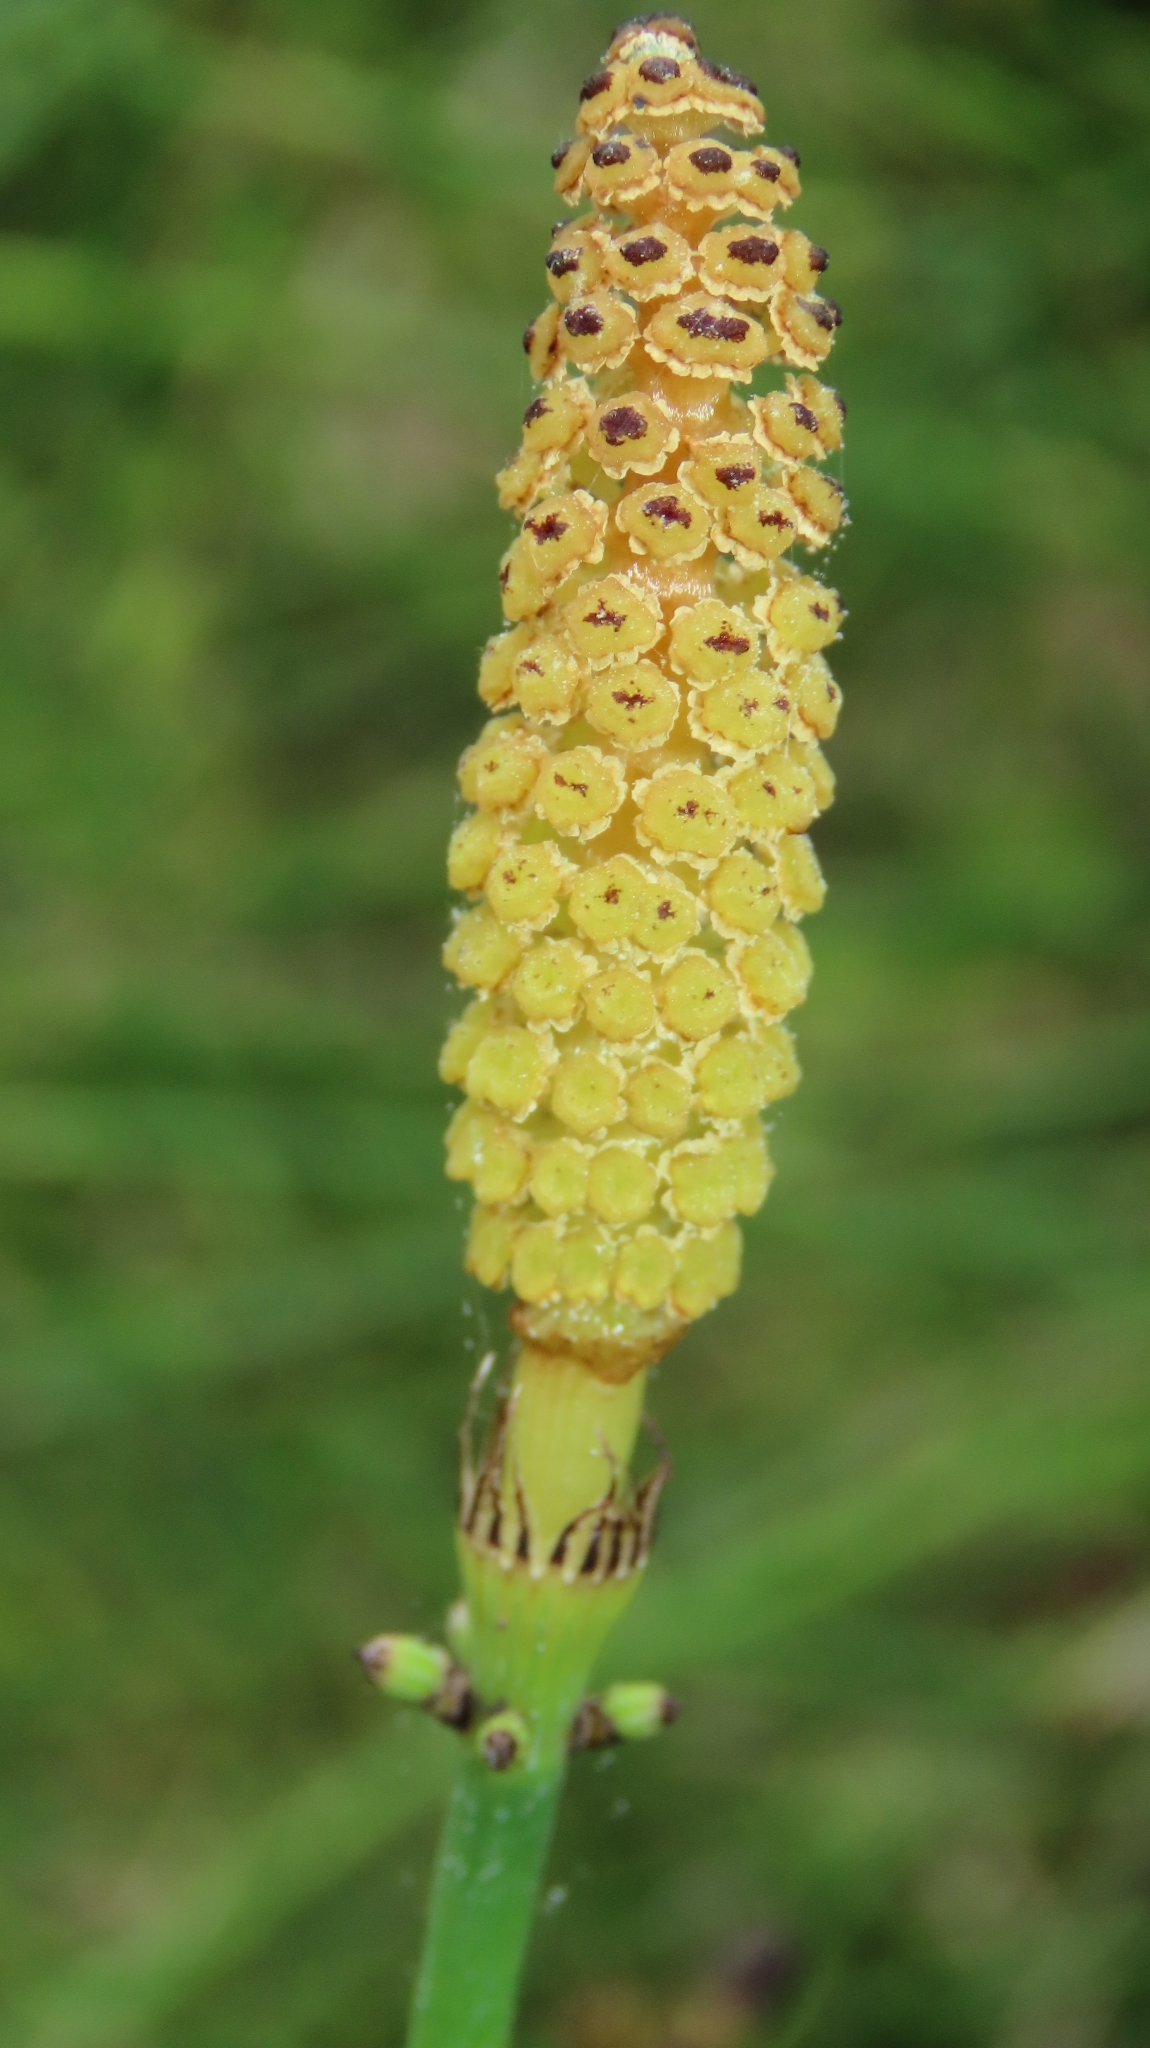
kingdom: Plantae
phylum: Tracheophyta
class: Polypodiopsida
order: Equisetales
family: Equisetaceae
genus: Equisetum
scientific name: Equisetum ramosissimum
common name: Branched horsetail
